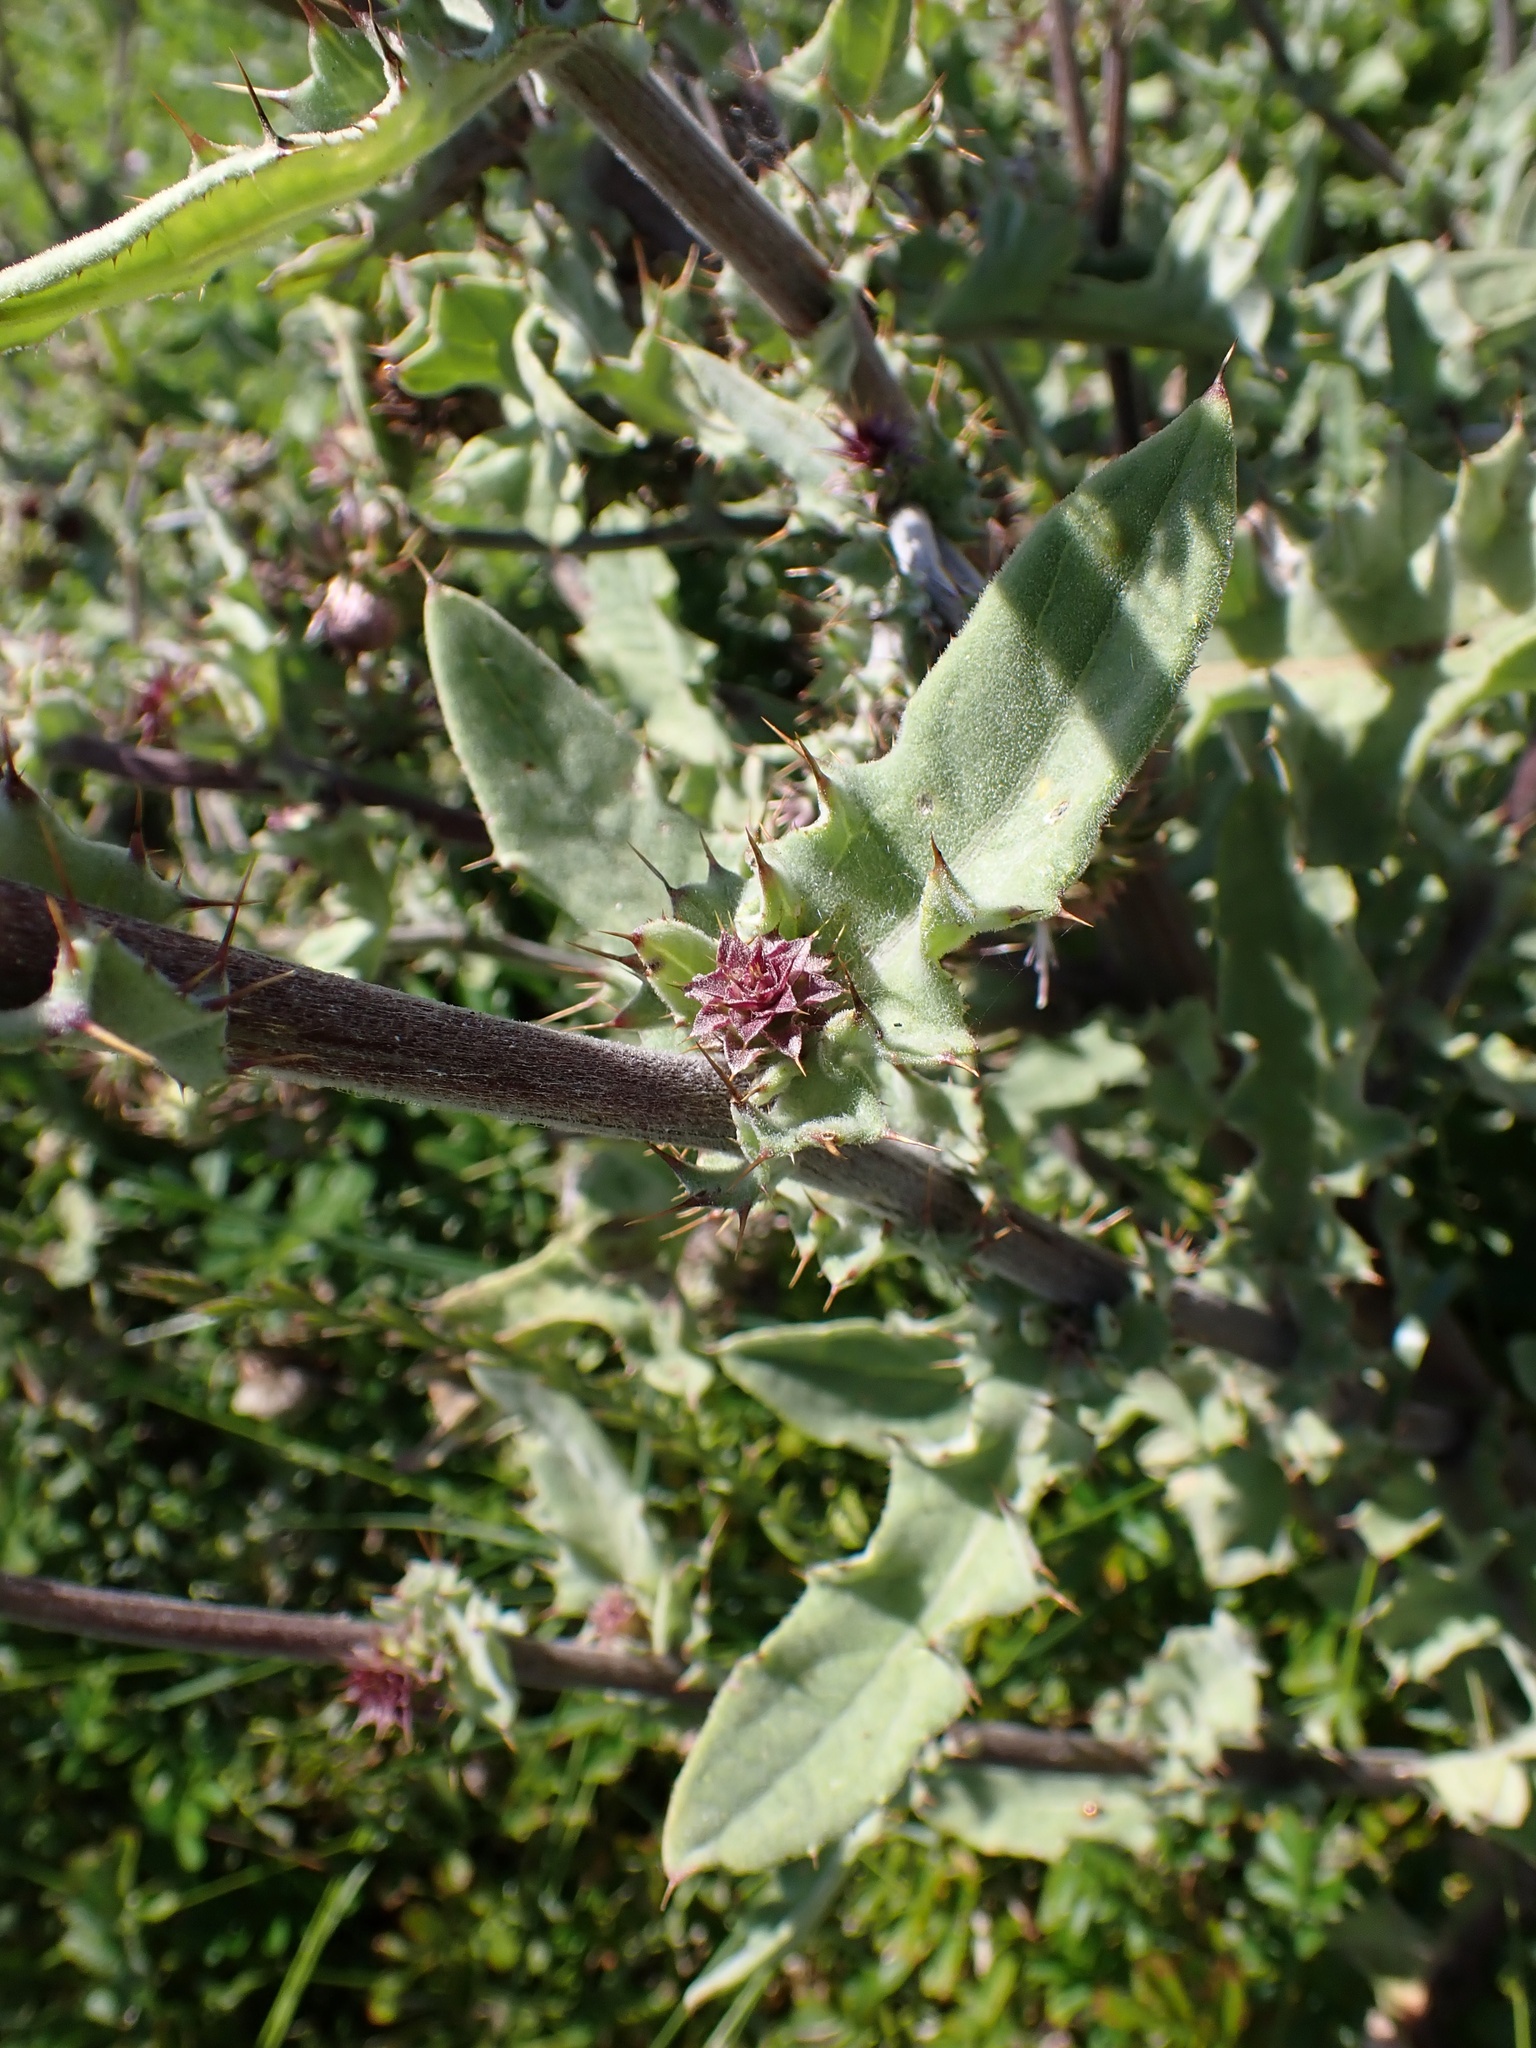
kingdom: Plantae
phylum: Tracheophyta
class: Magnoliopsida
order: Asterales
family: Asteraceae
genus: Cirsium
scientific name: Cirsium fontinale
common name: Fountain thistle
